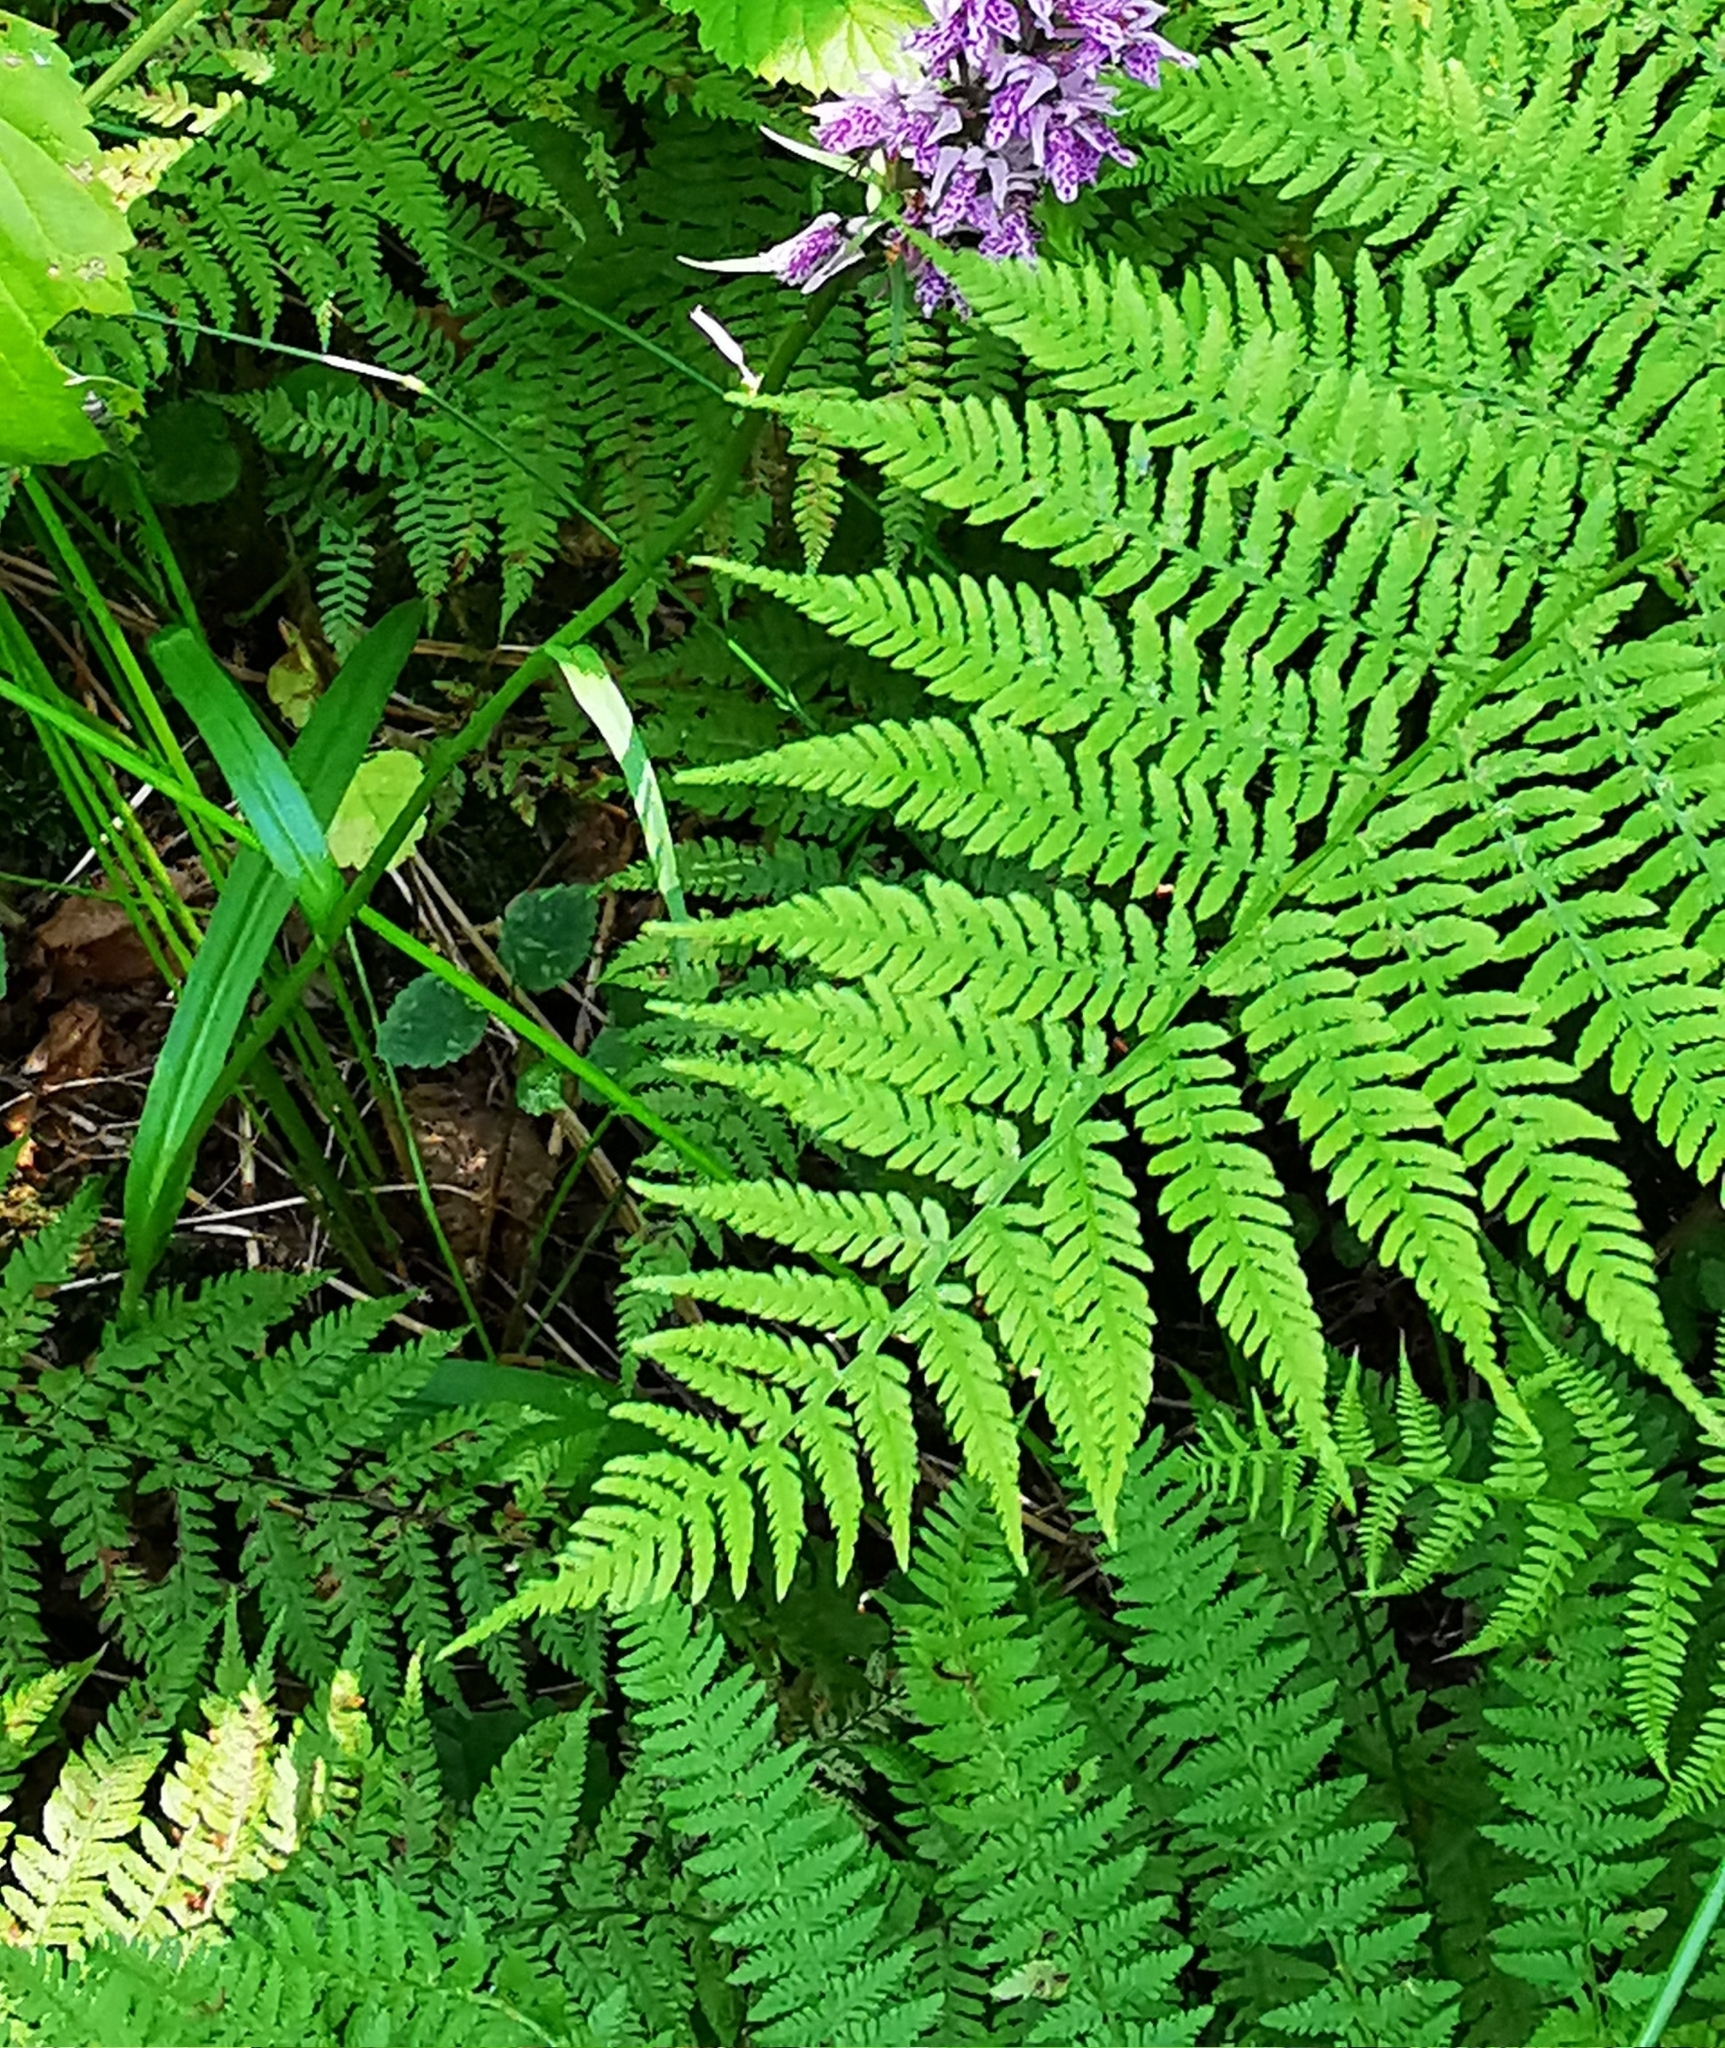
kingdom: Plantae
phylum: Tracheophyta
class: Polypodiopsida
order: Polypodiales
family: Athyriaceae
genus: Athyrium
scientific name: Athyrium filix-femina
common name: Lady fern
